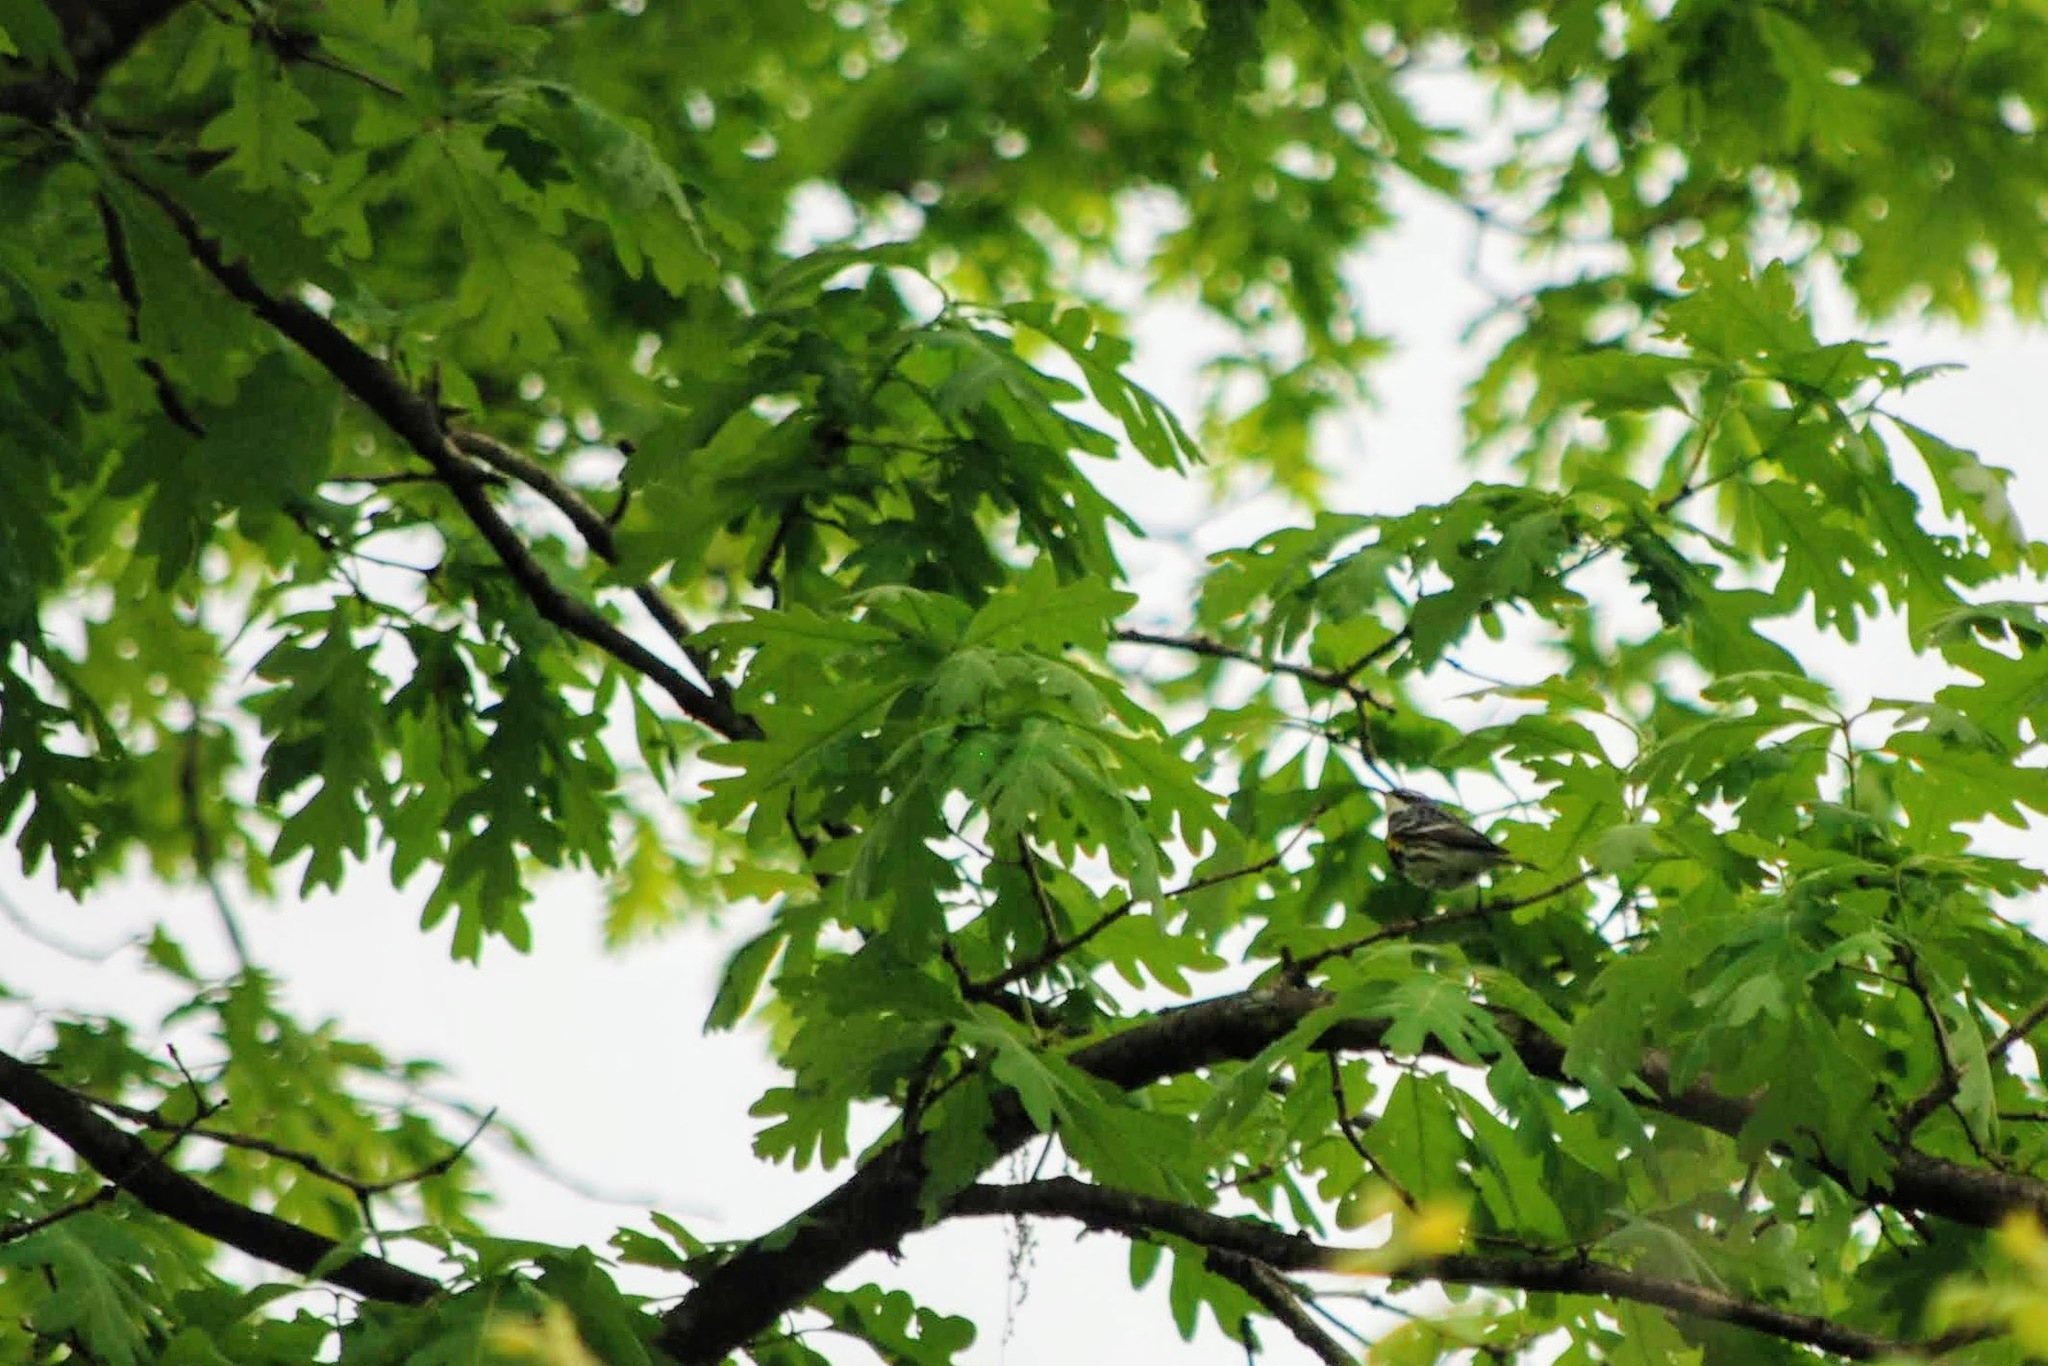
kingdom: Animalia
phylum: Chordata
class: Aves
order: Passeriformes
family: Parulidae
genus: Setophaga
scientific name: Setophaga coronata
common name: Myrtle warbler
